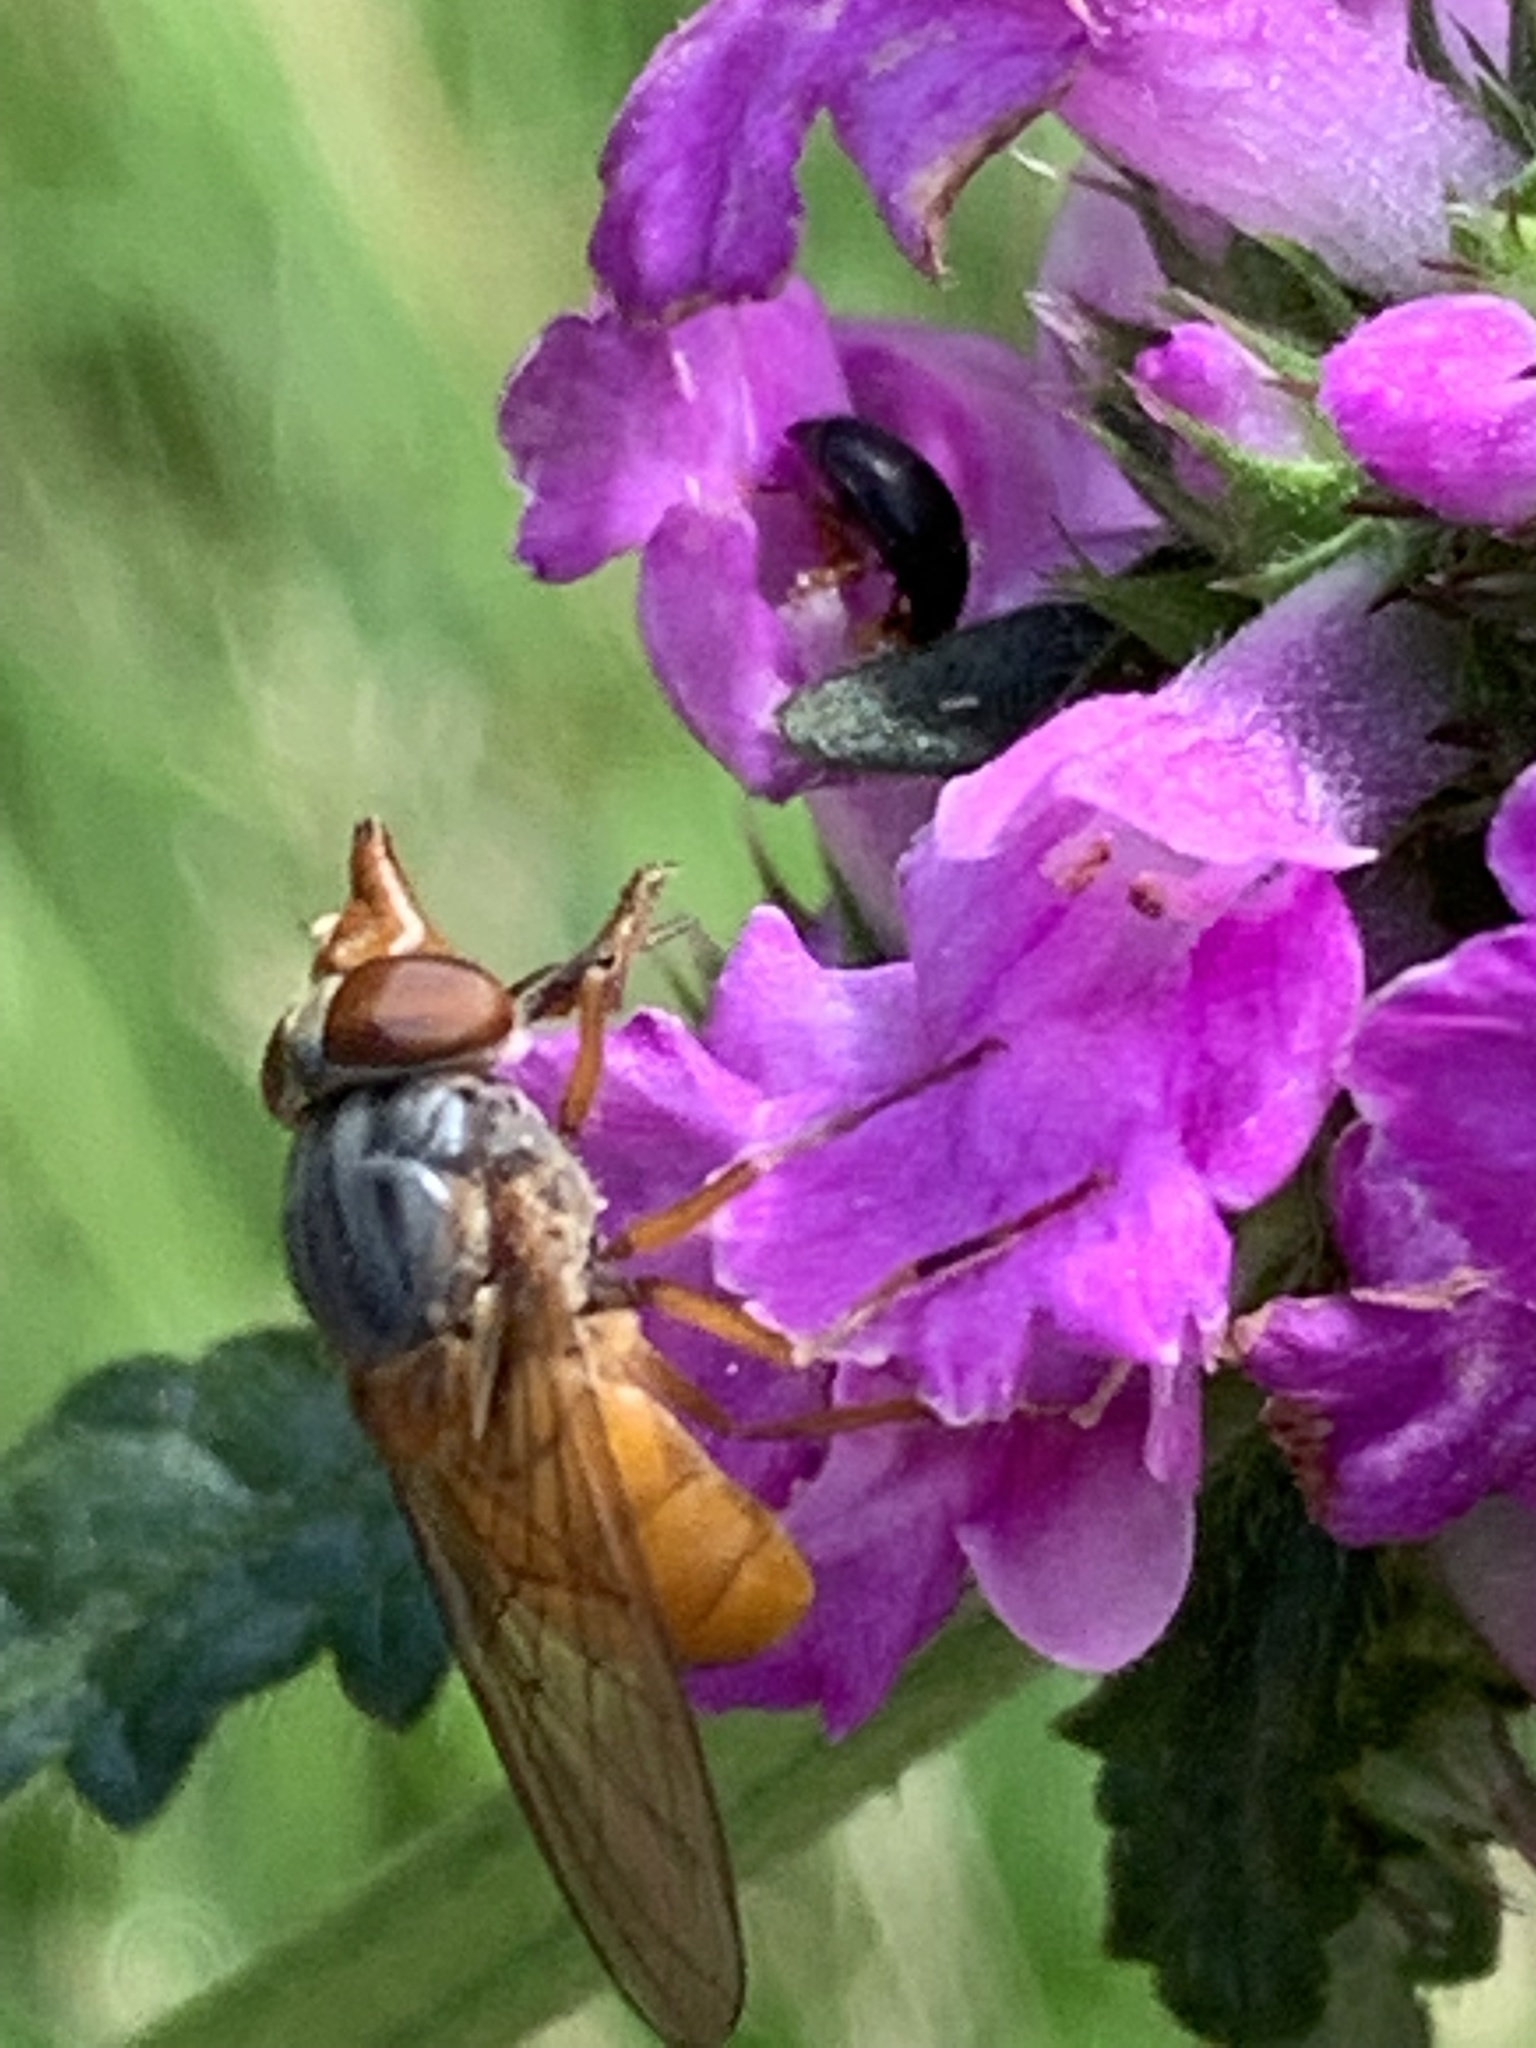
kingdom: Animalia
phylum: Arthropoda
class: Insecta
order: Diptera
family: Syrphidae
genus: Rhingia
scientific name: Rhingia rostrata
